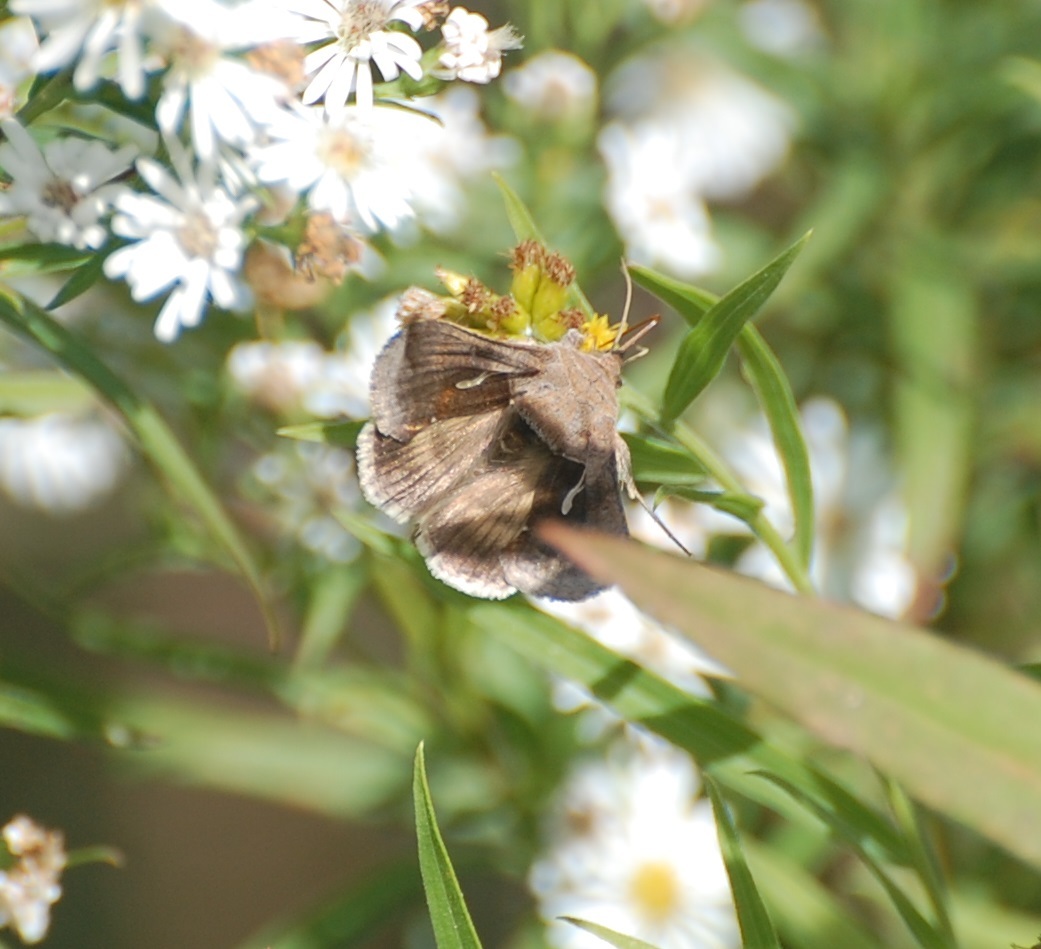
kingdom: Animalia
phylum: Arthropoda
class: Insecta
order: Lepidoptera
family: Noctuidae
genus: Anagrapha
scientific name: Anagrapha falcifera
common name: Celery looper
